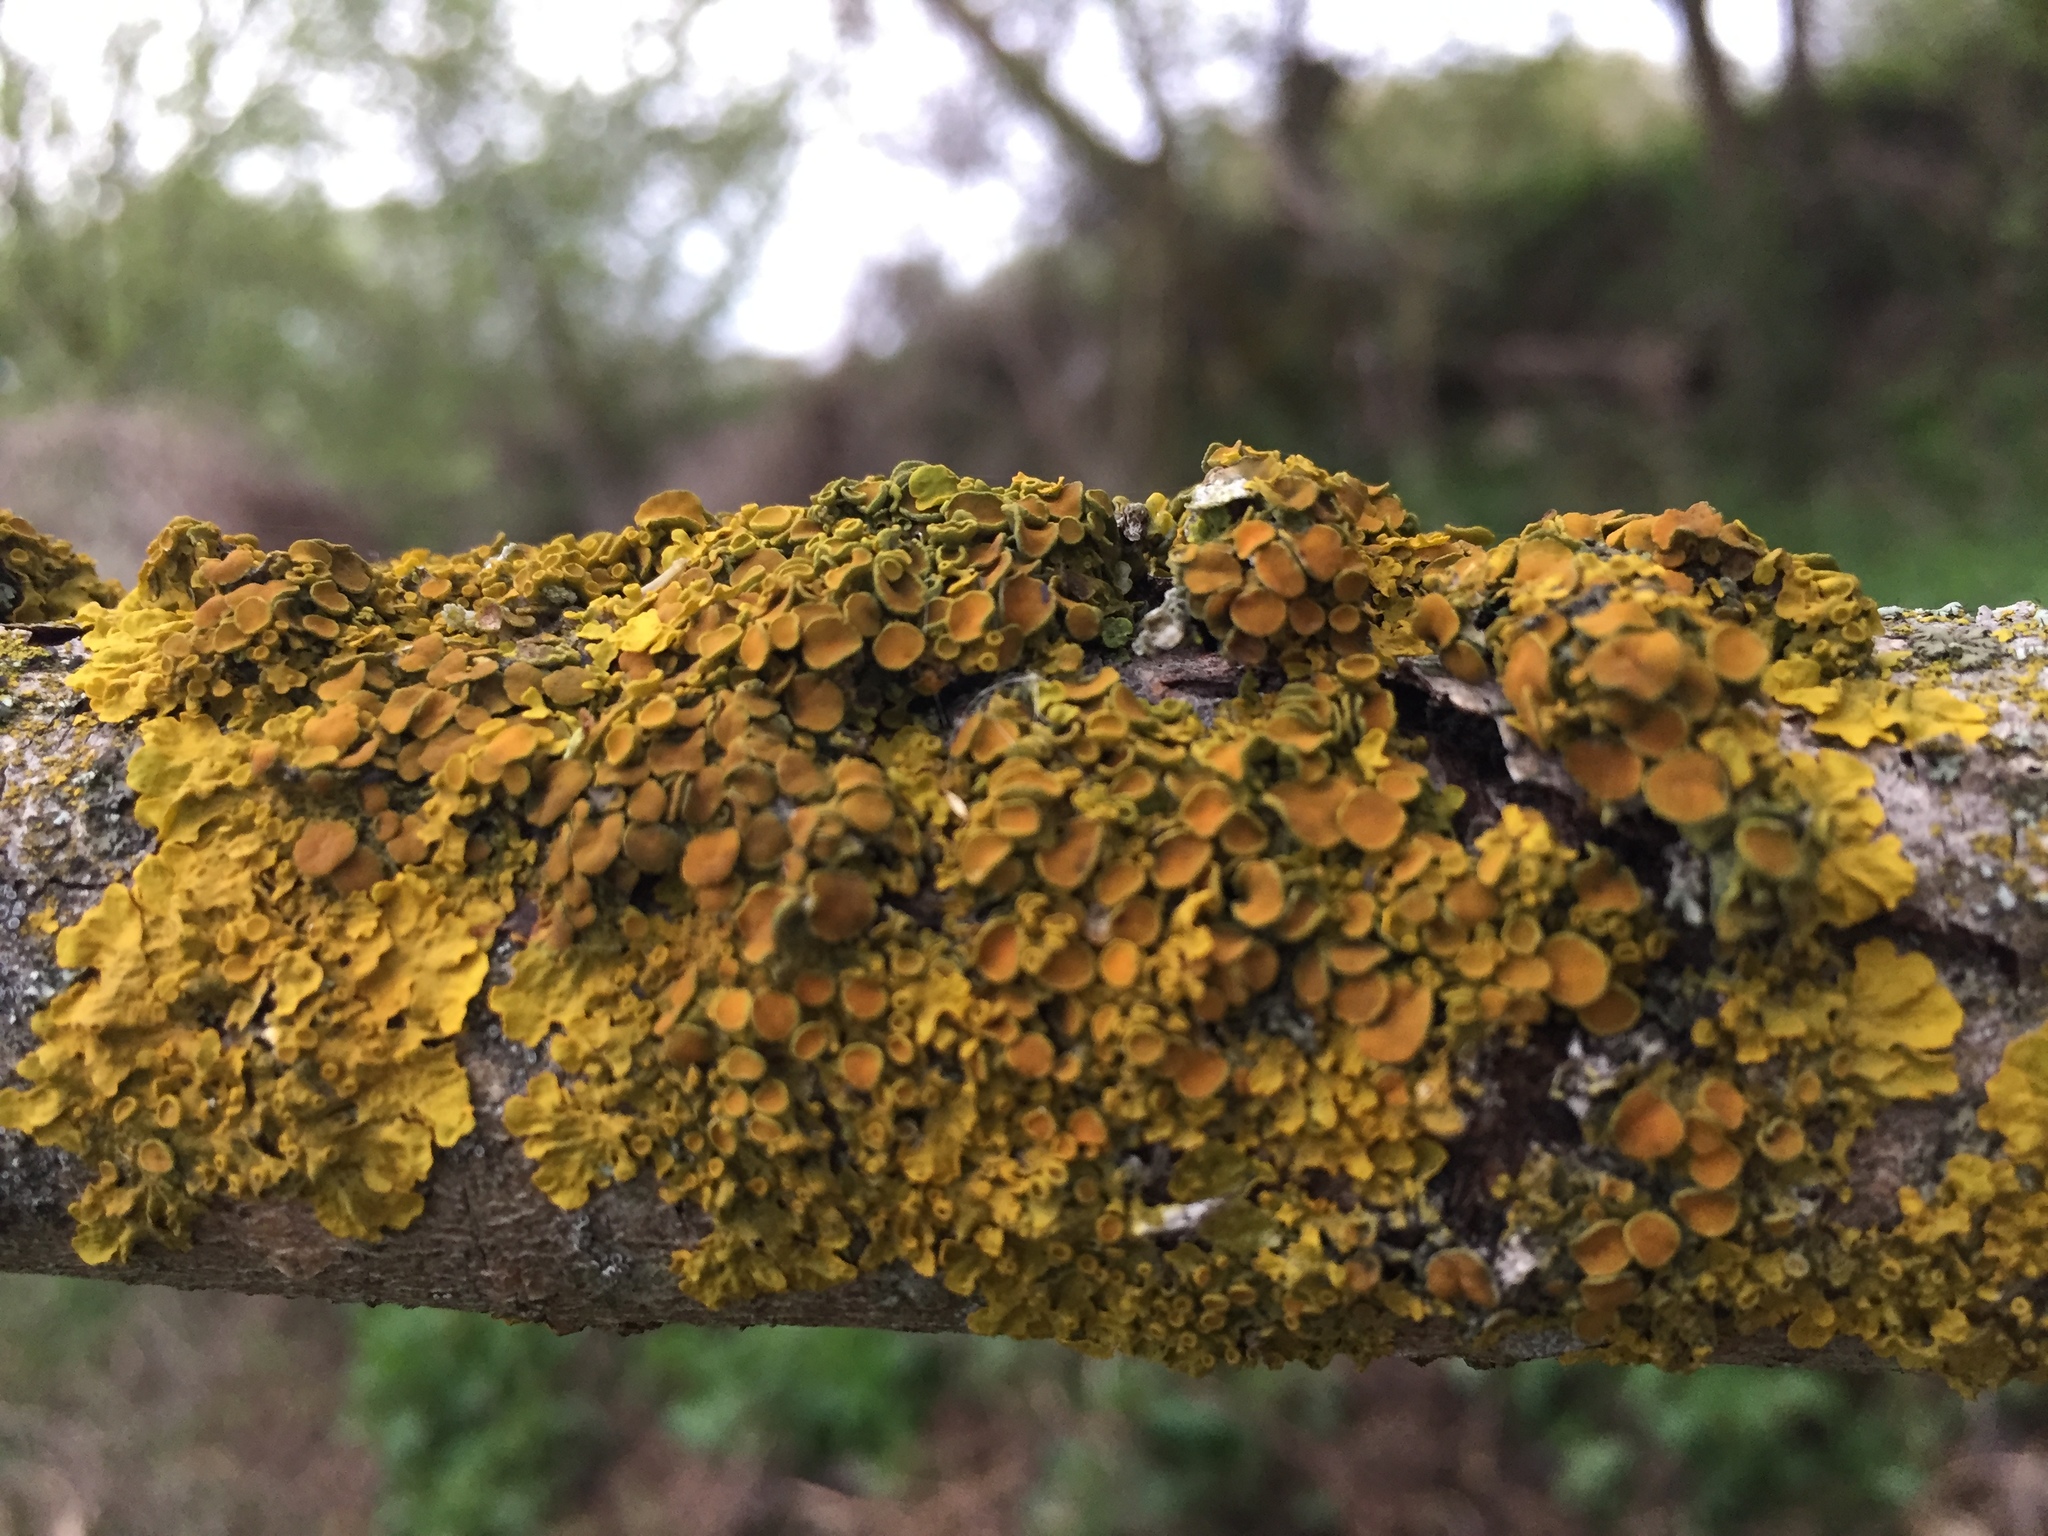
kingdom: Fungi
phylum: Ascomycota
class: Lecanoromycetes
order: Teloschistales
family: Teloschistaceae
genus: Xanthoria
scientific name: Xanthoria parietina
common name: Common orange lichen
